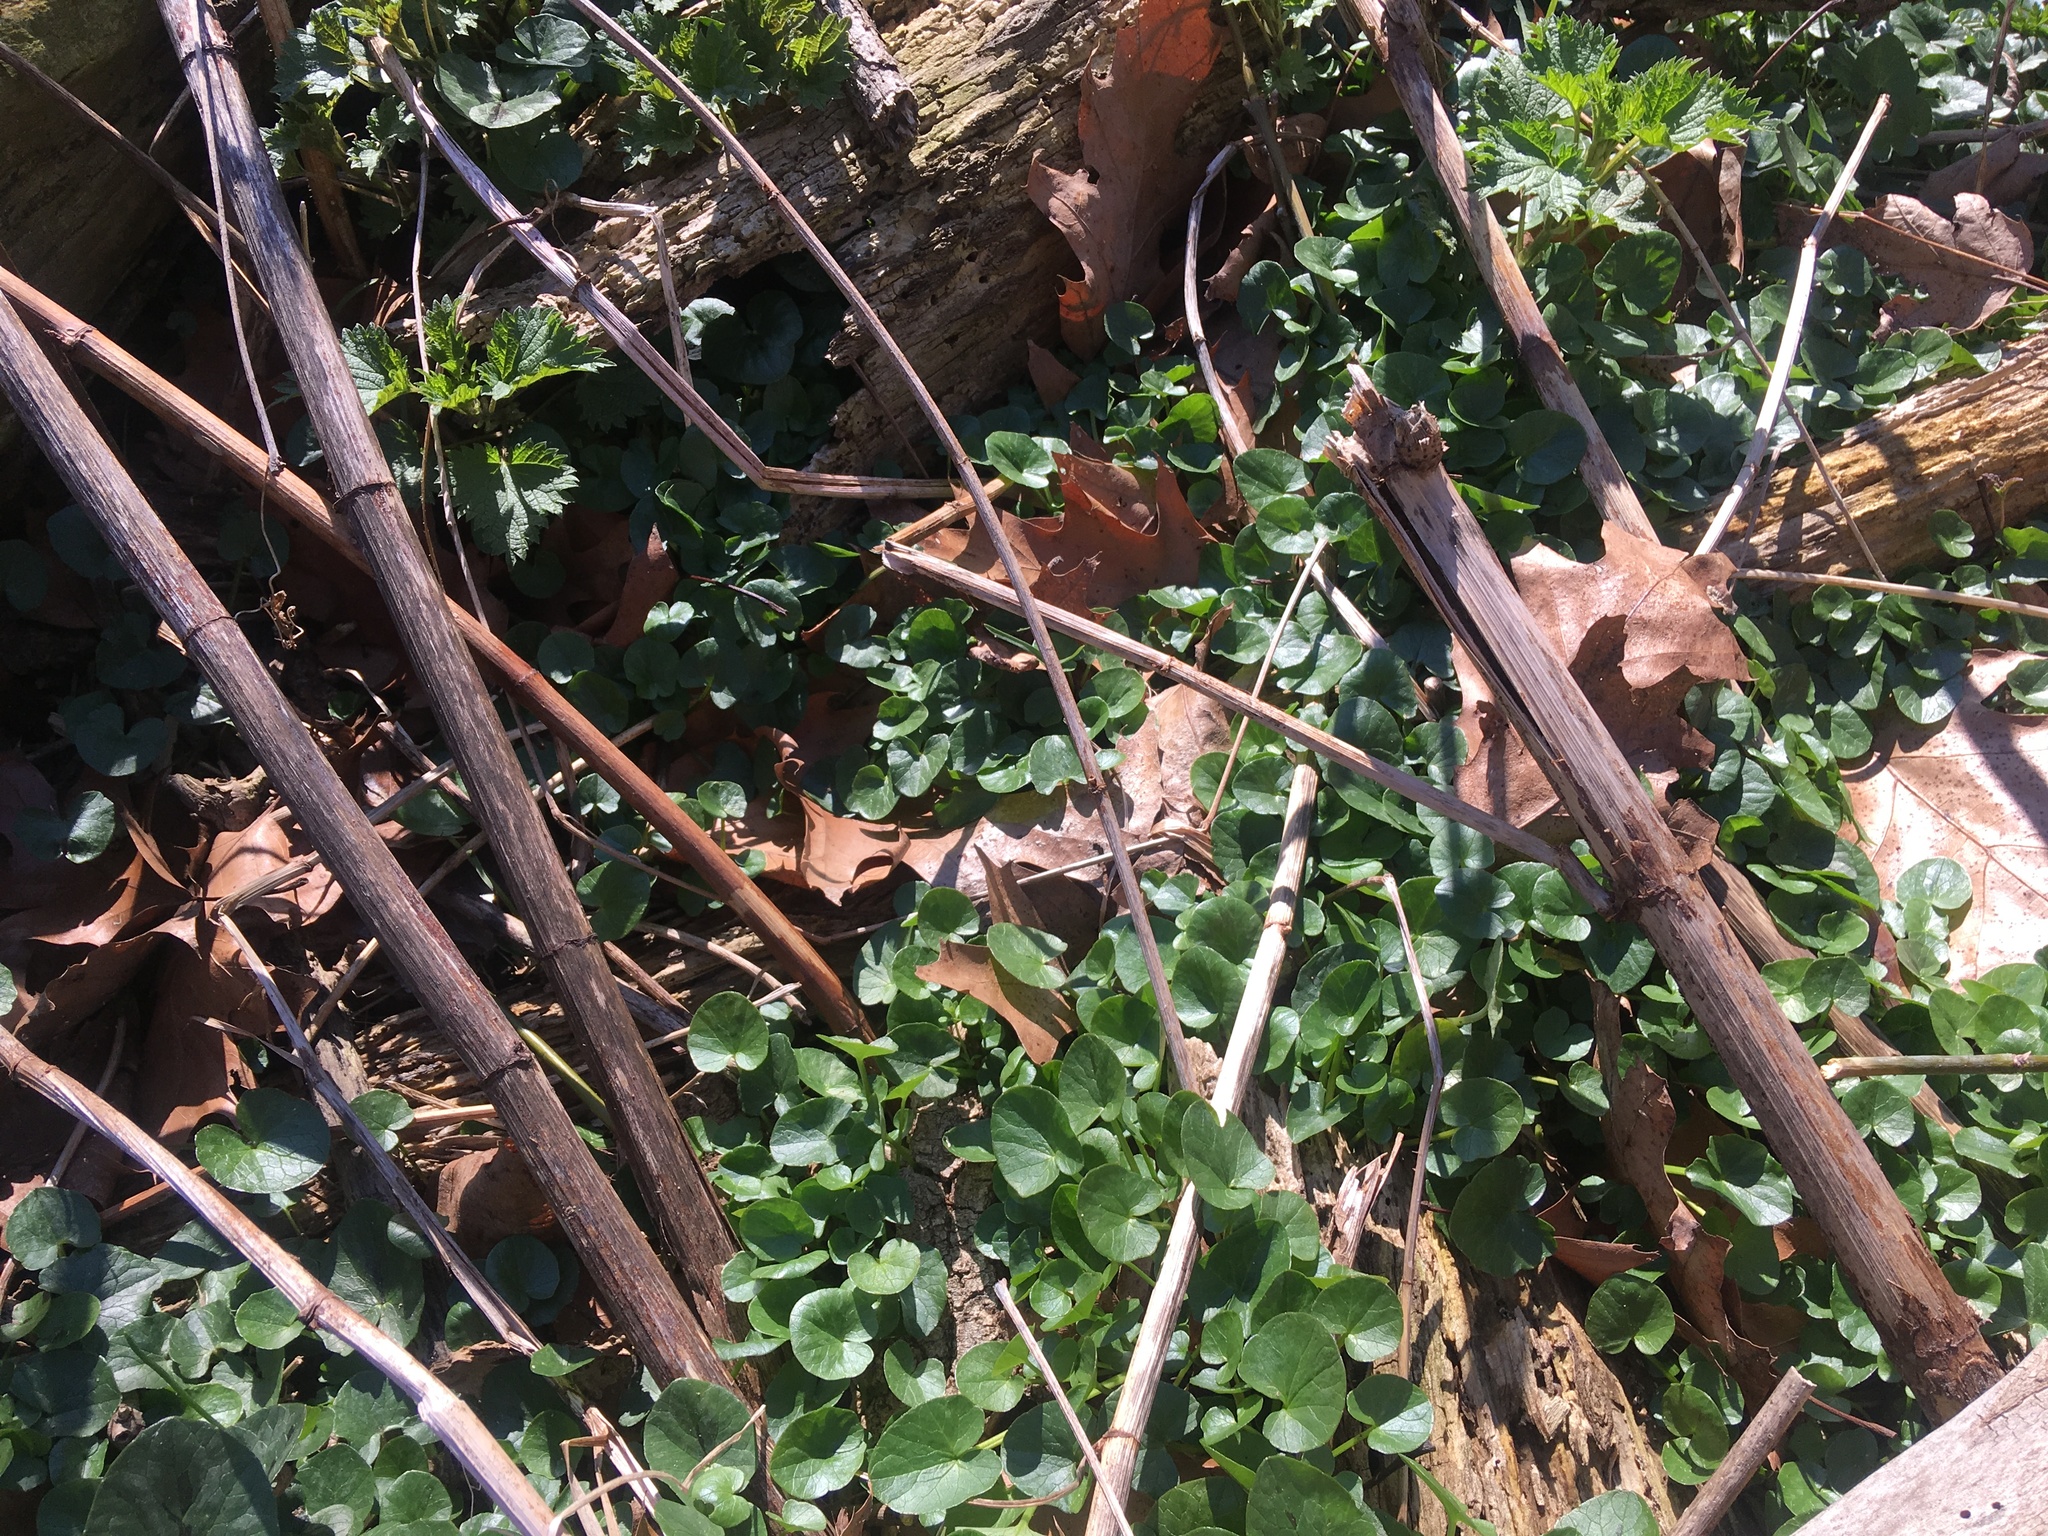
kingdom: Plantae
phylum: Tracheophyta
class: Magnoliopsida
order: Ranunculales
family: Ranunculaceae
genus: Ficaria
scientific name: Ficaria verna
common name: Lesser celandine
